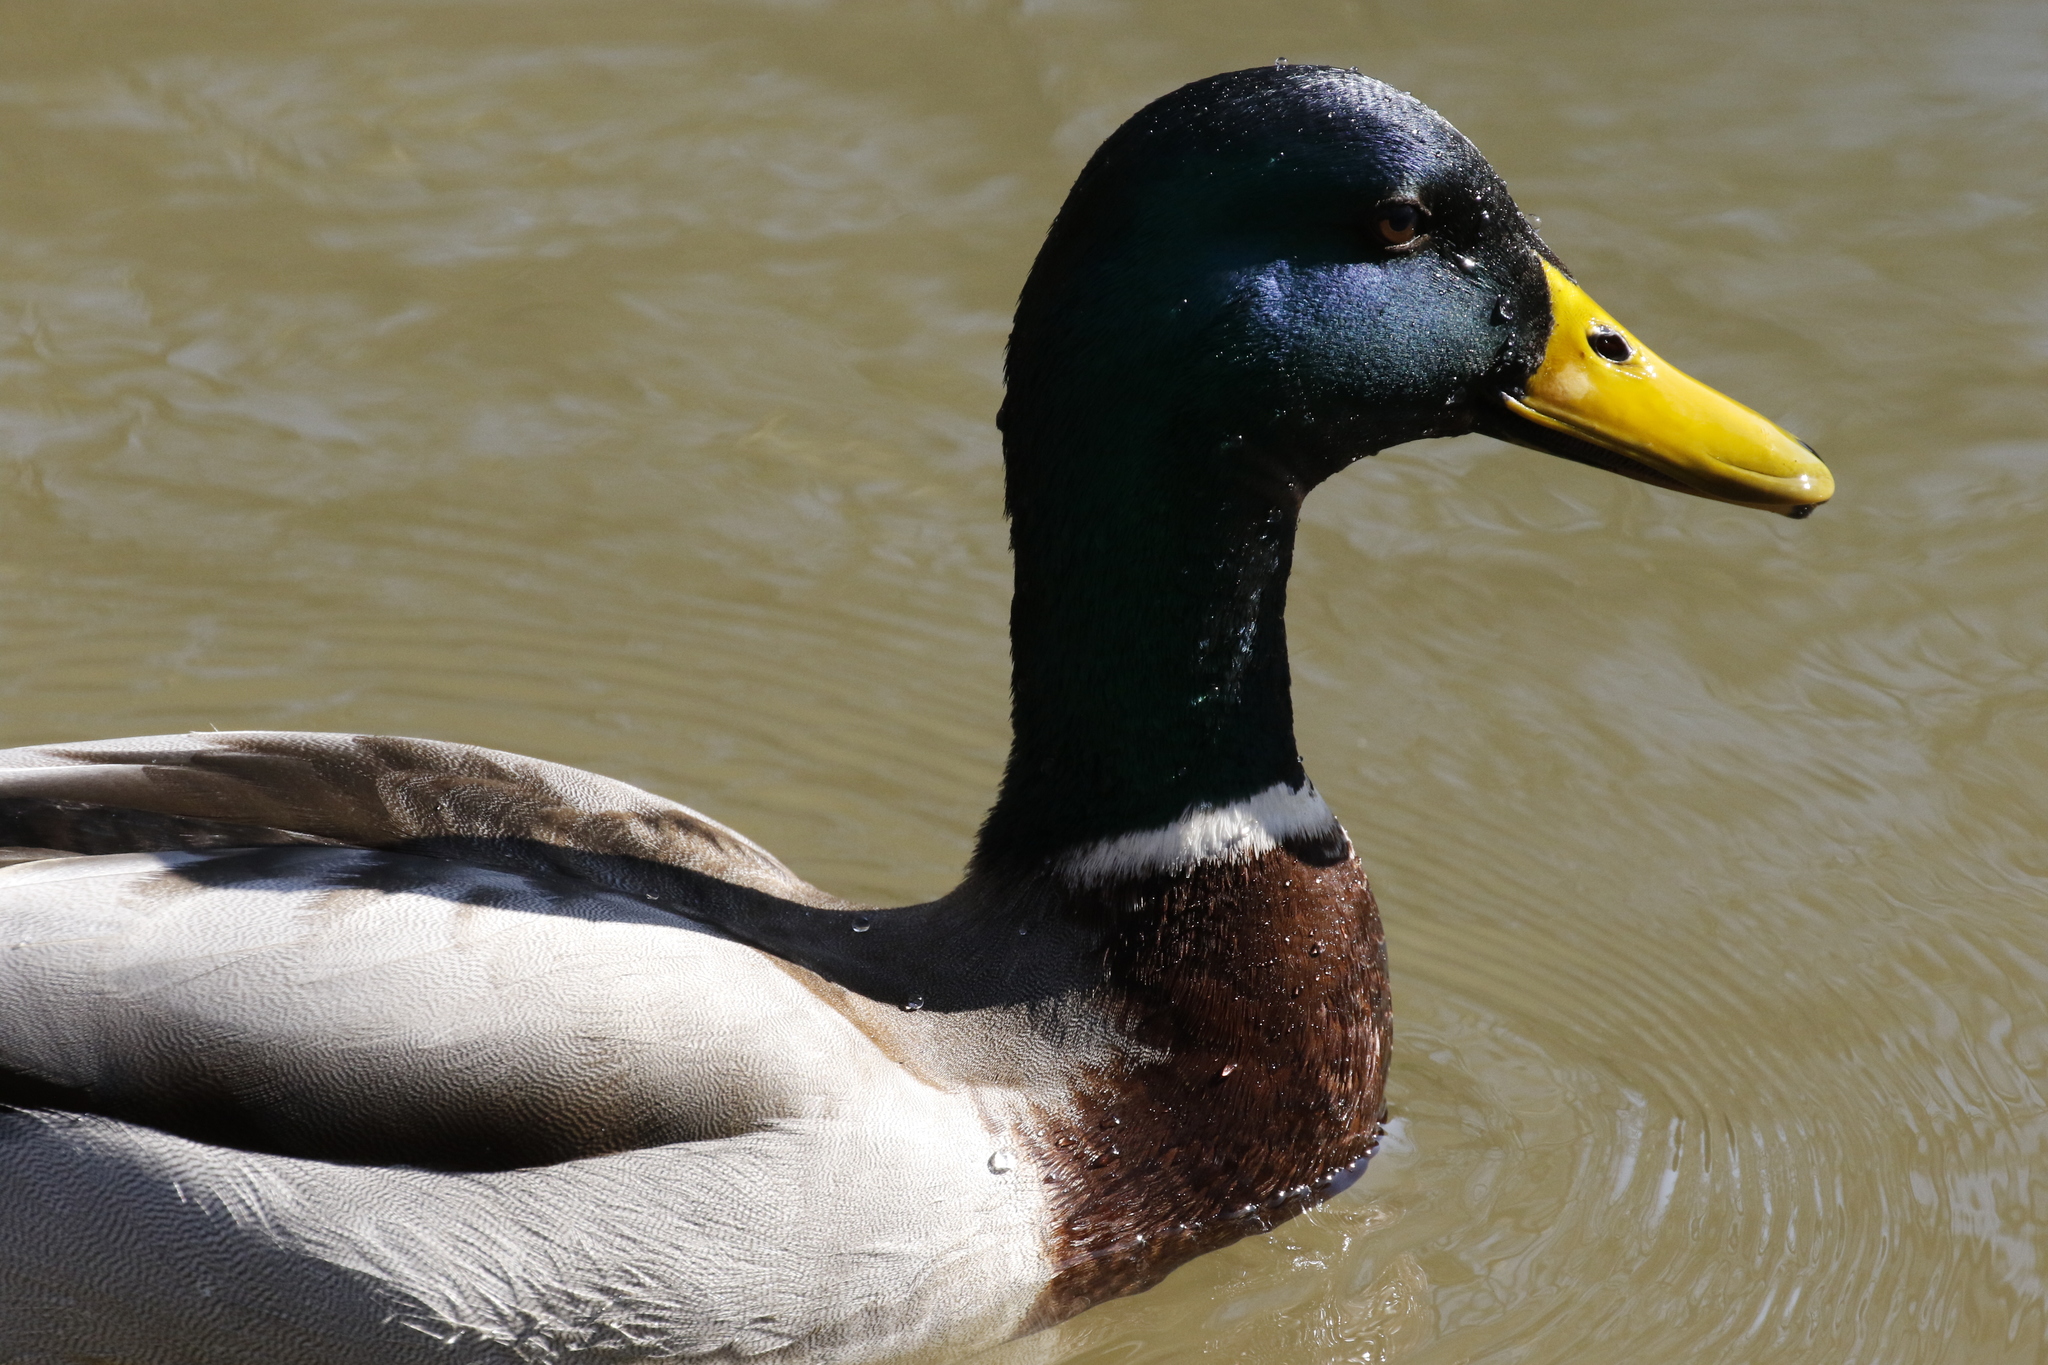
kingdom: Animalia
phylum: Chordata
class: Aves
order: Anseriformes
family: Anatidae
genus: Anas
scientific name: Anas platyrhynchos
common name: Mallard
